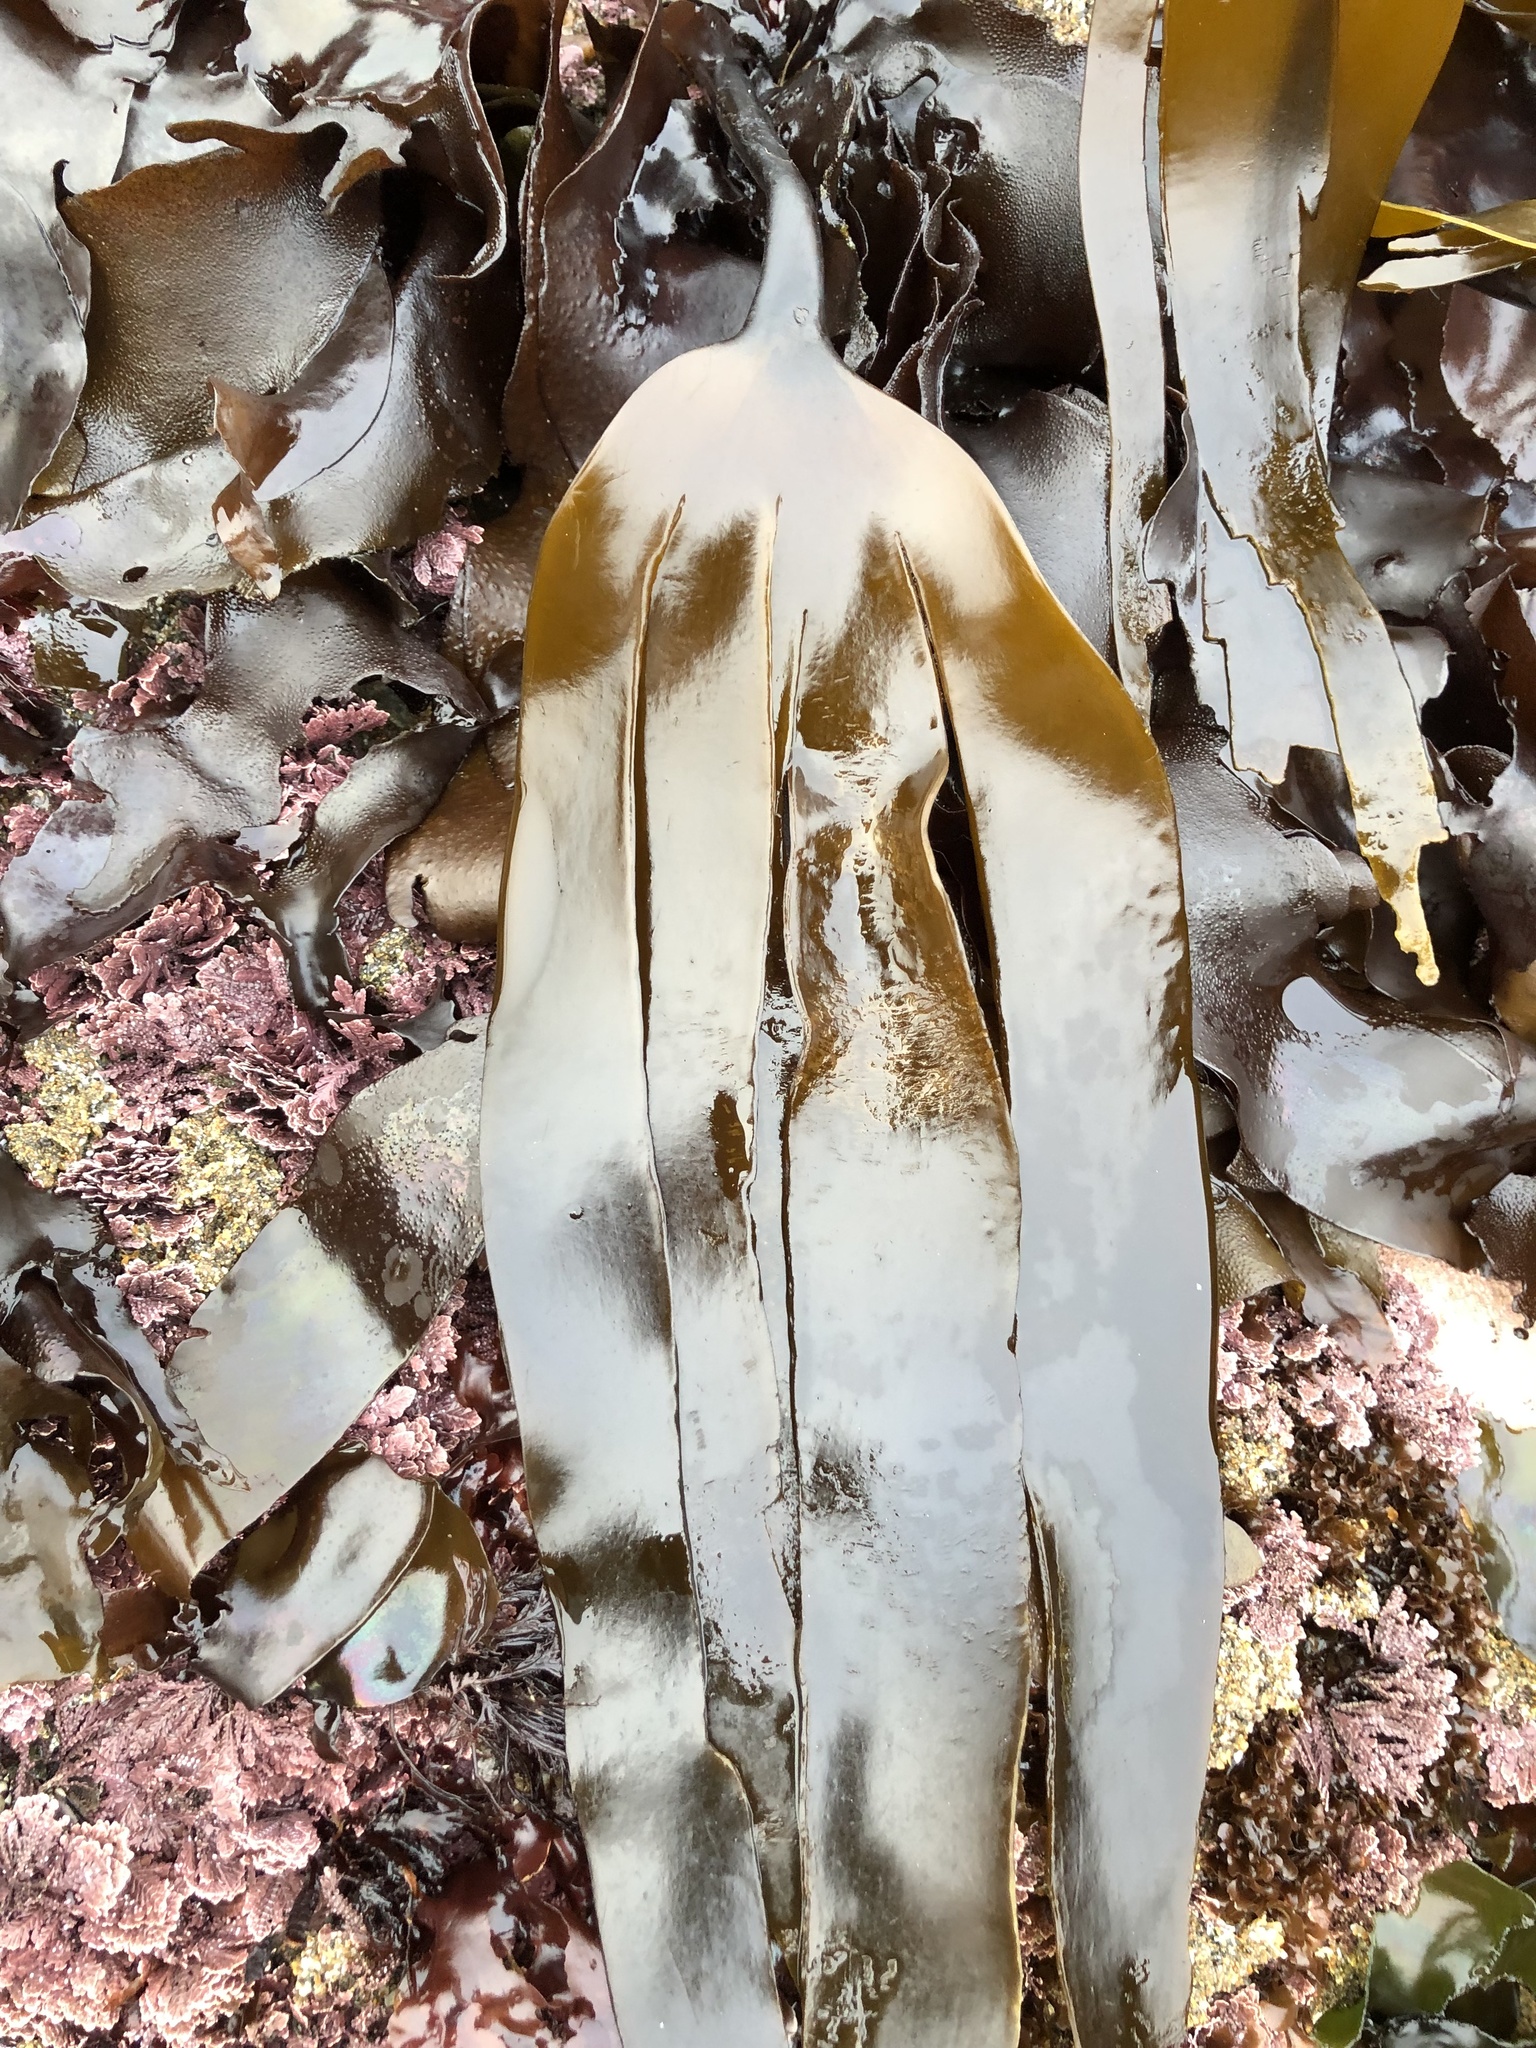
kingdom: Chromista
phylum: Ochrophyta
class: Phaeophyceae
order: Laminariales
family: Laminariaceae
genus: Laminaria
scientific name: Laminaria setchellii
